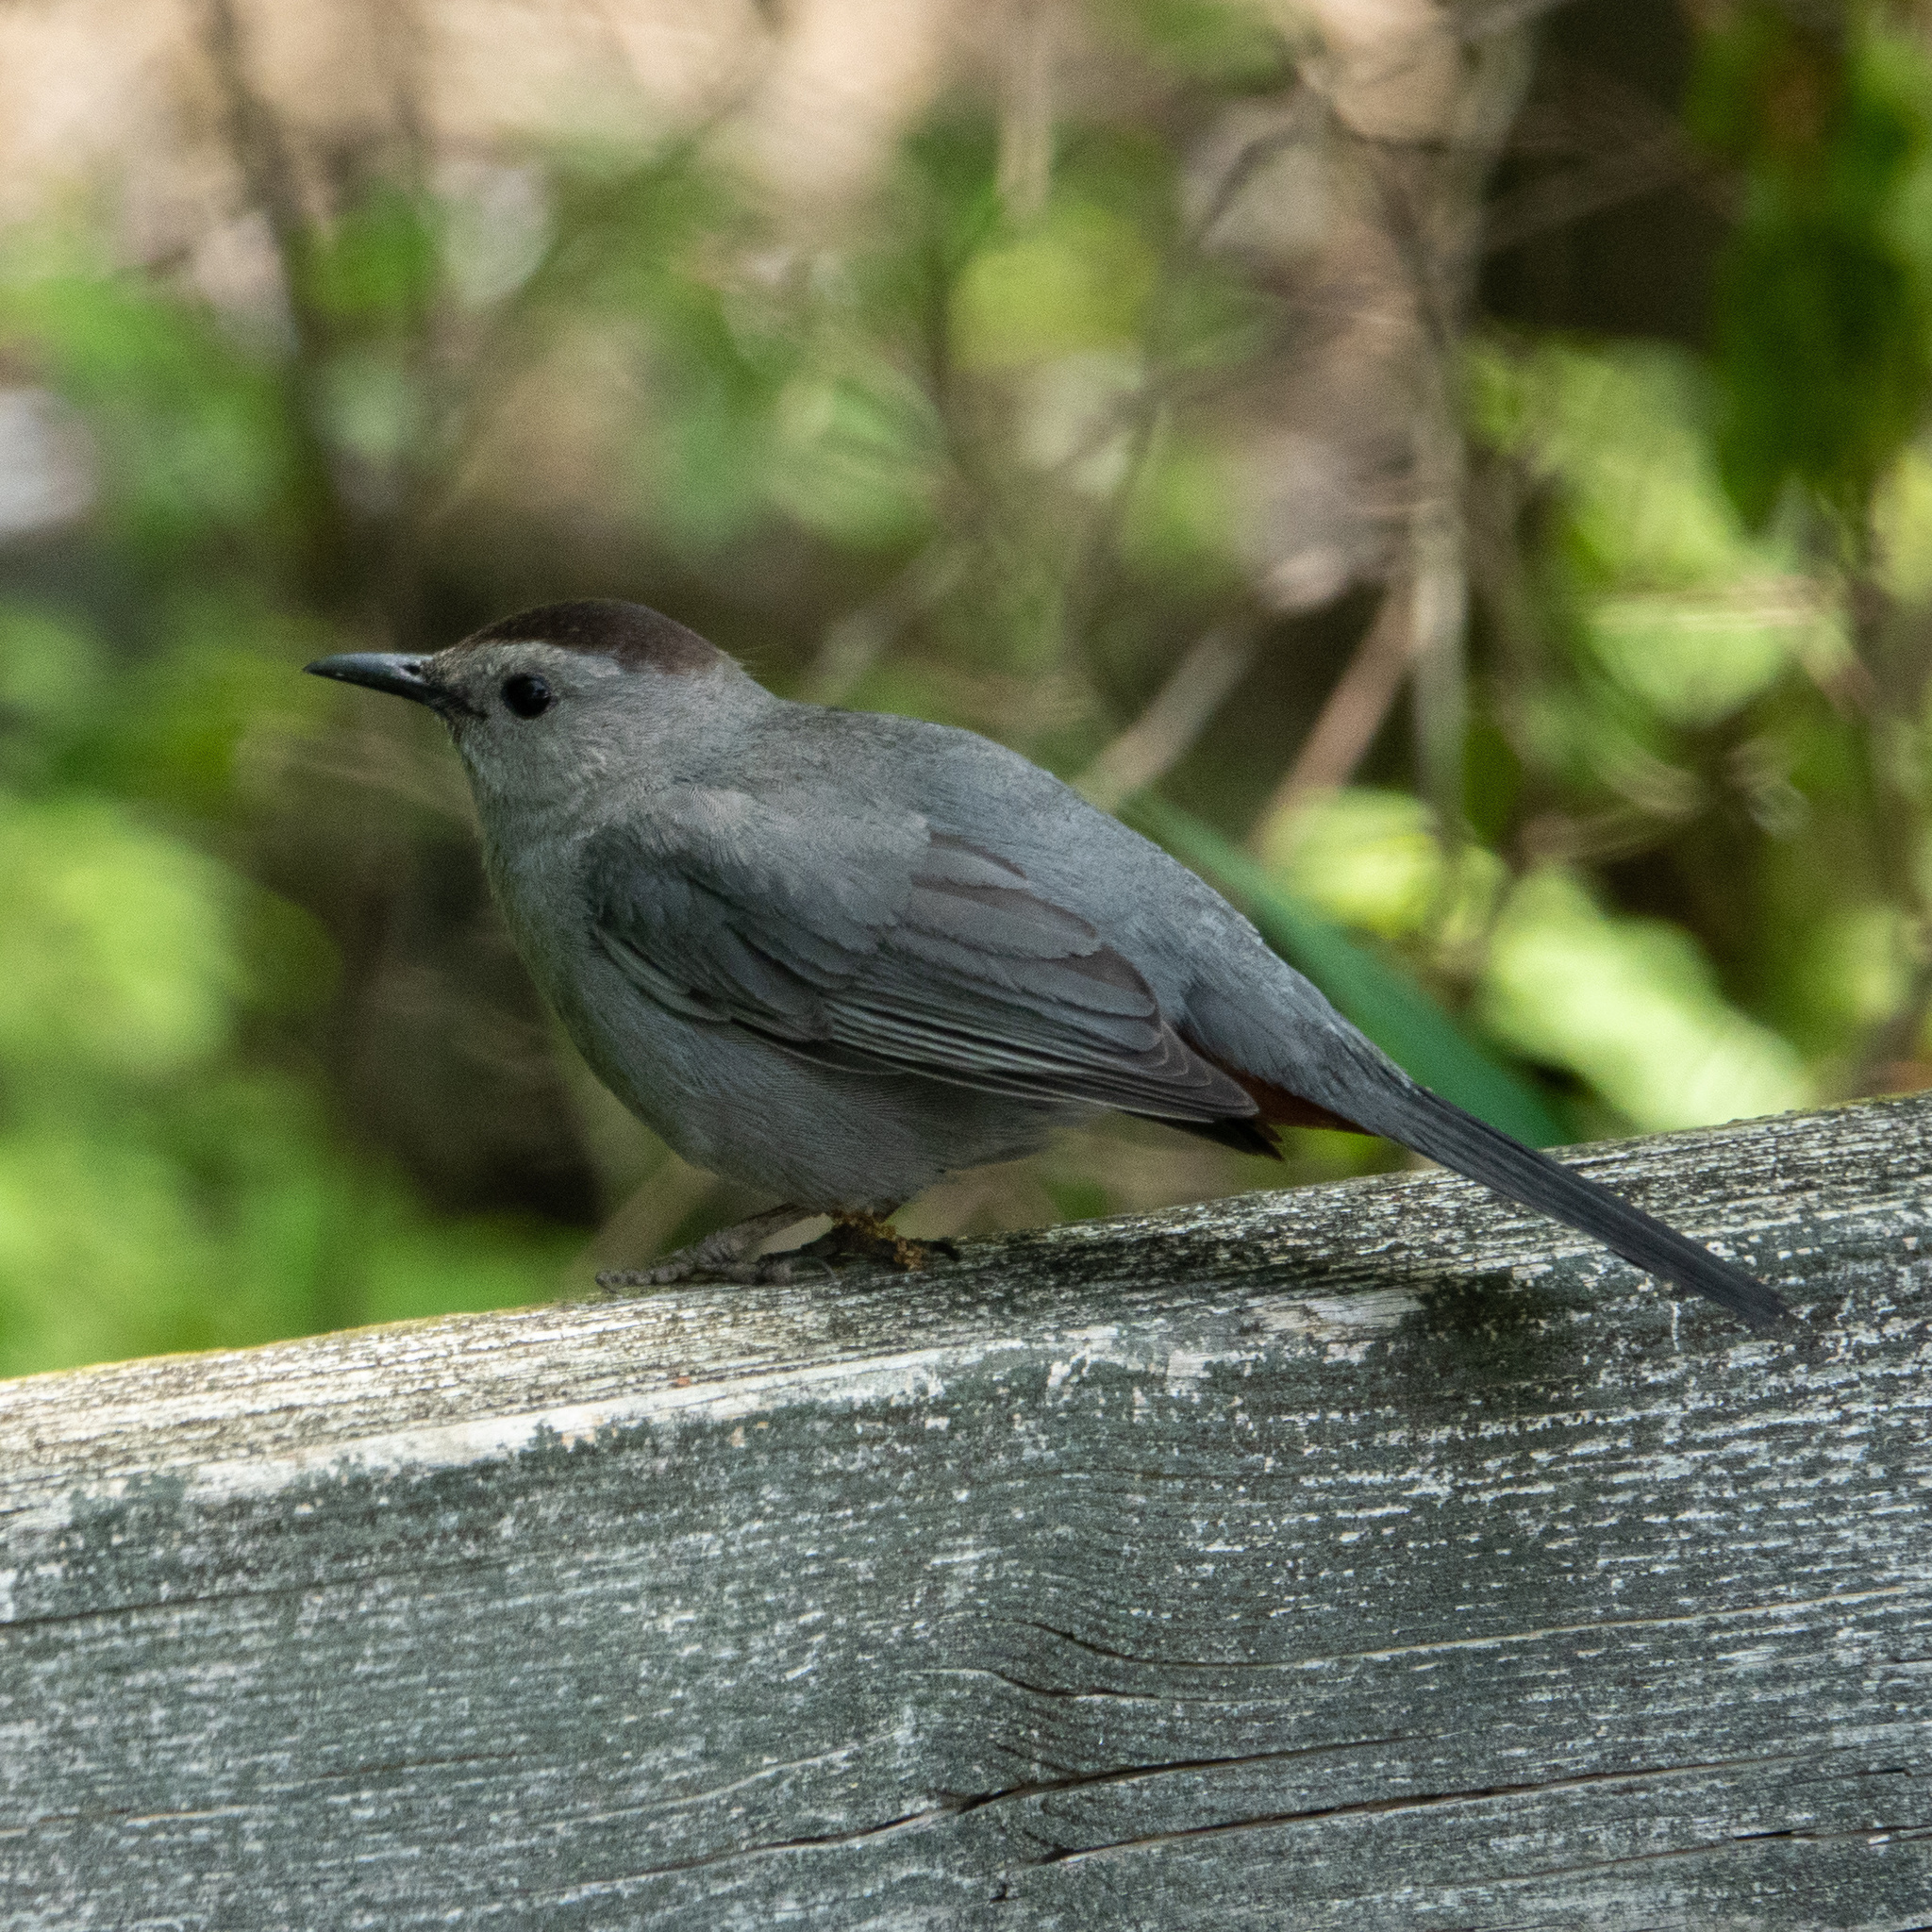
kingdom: Animalia
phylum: Chordata
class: Aves
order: Passeriformes
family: Mimidae
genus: Dumetella
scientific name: Dumetella carolinensis
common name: Gray catbird
